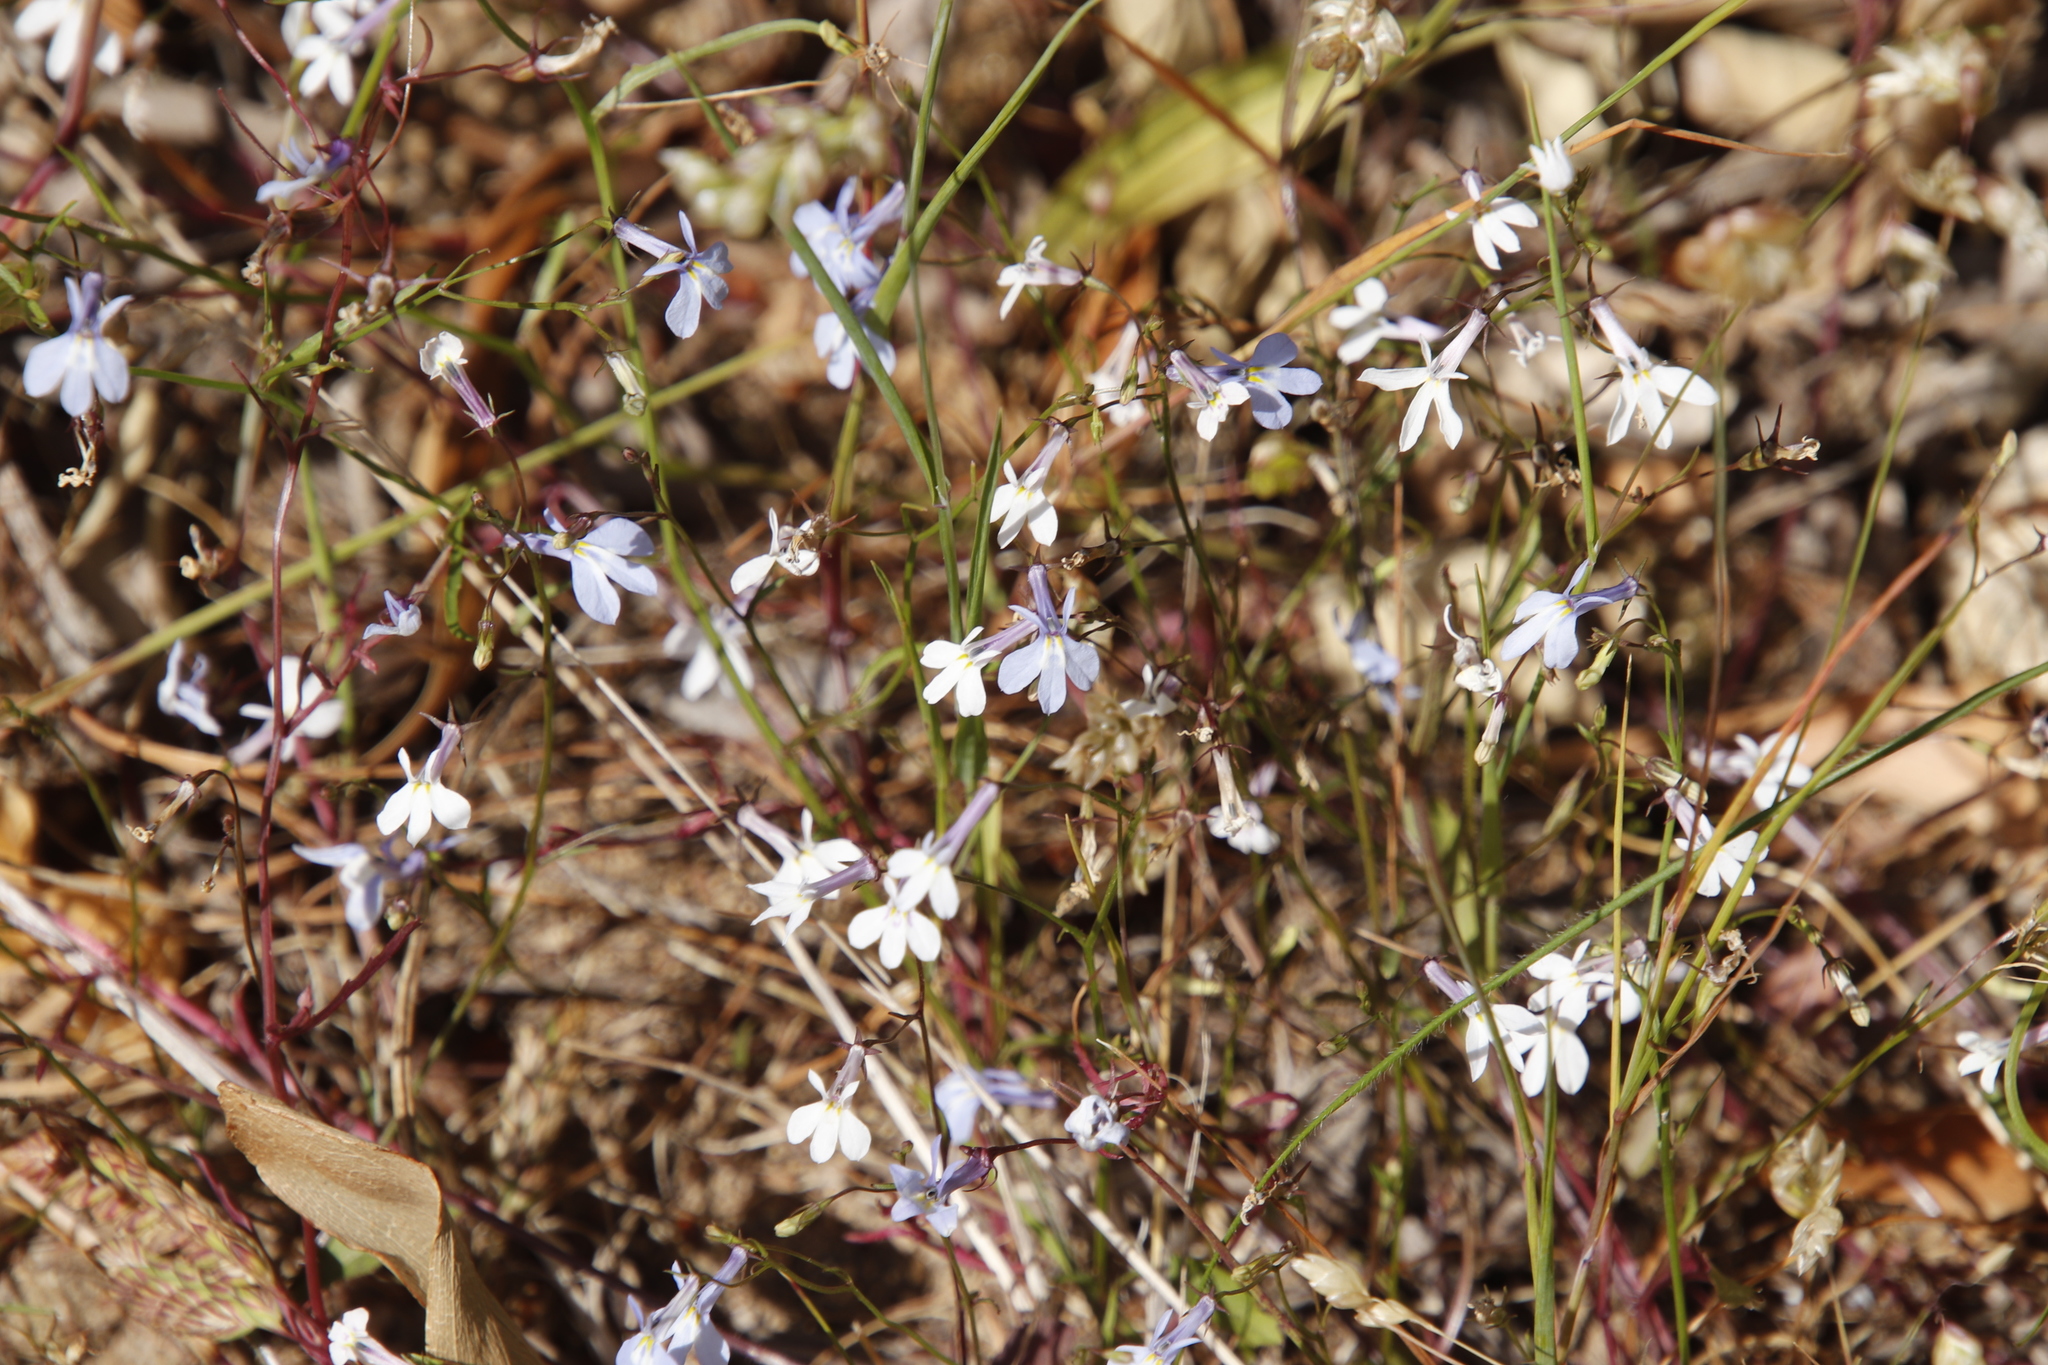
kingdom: Plantae
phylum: Tracheophyta
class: Magnoliopsida
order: Asterales
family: Campanulaceae
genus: Lobelia
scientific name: Lobelia erinus
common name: Edging lobelia
